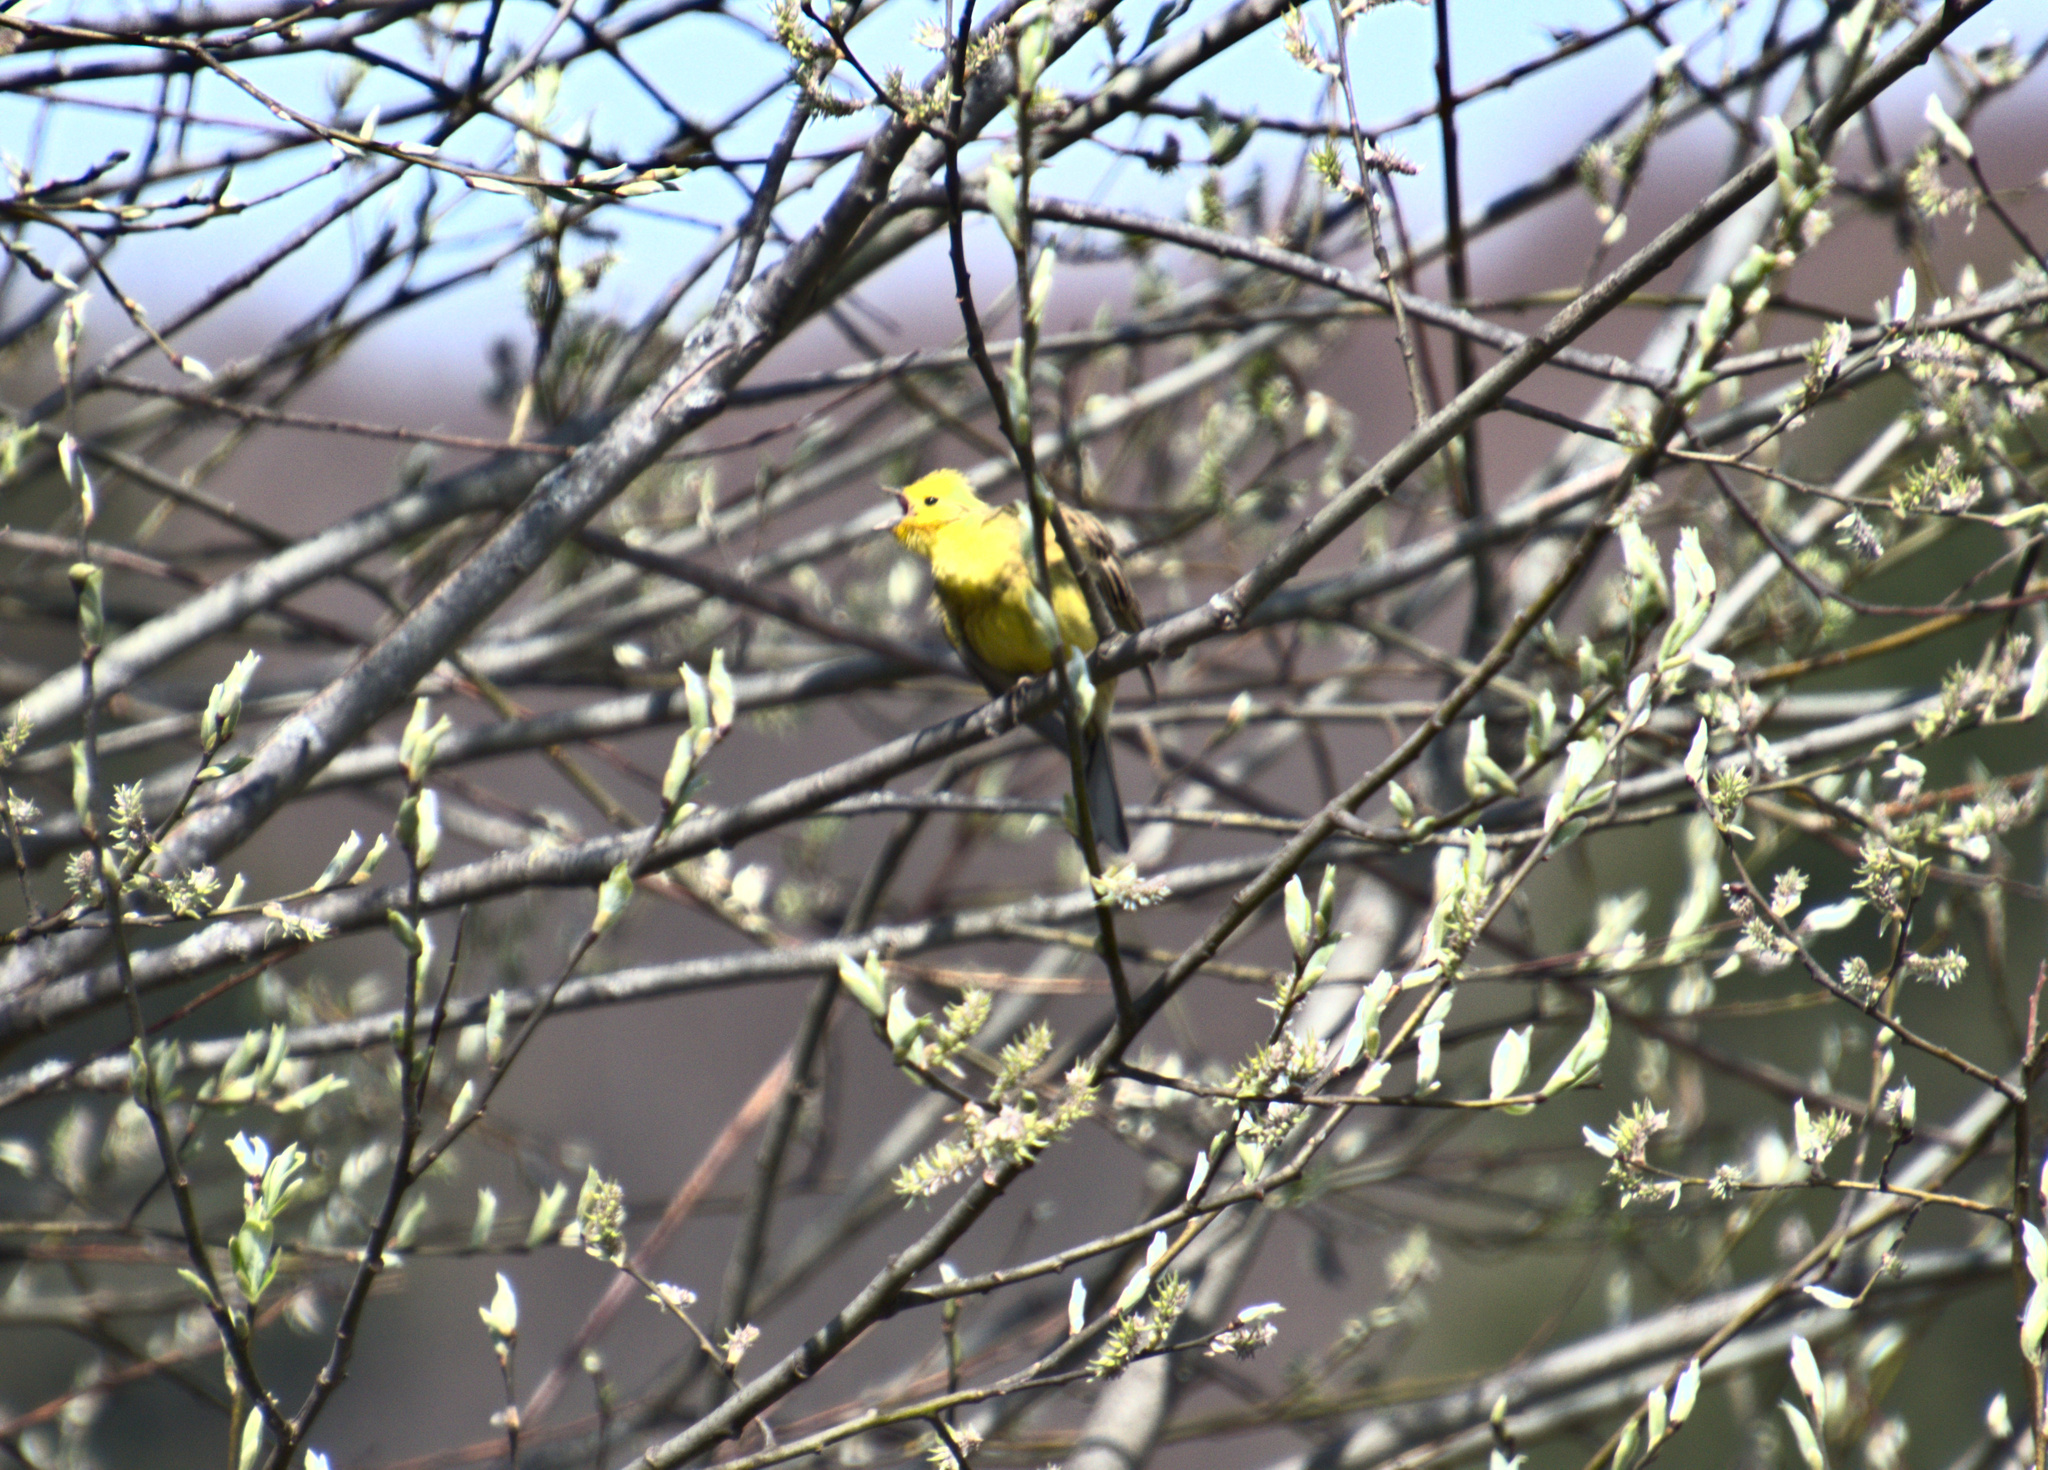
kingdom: Animalia
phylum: Chordata
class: Aves
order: Passeriformes
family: Emberizidae
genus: Emberiza
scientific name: Emberiza citrinella
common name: Yellowhammer
